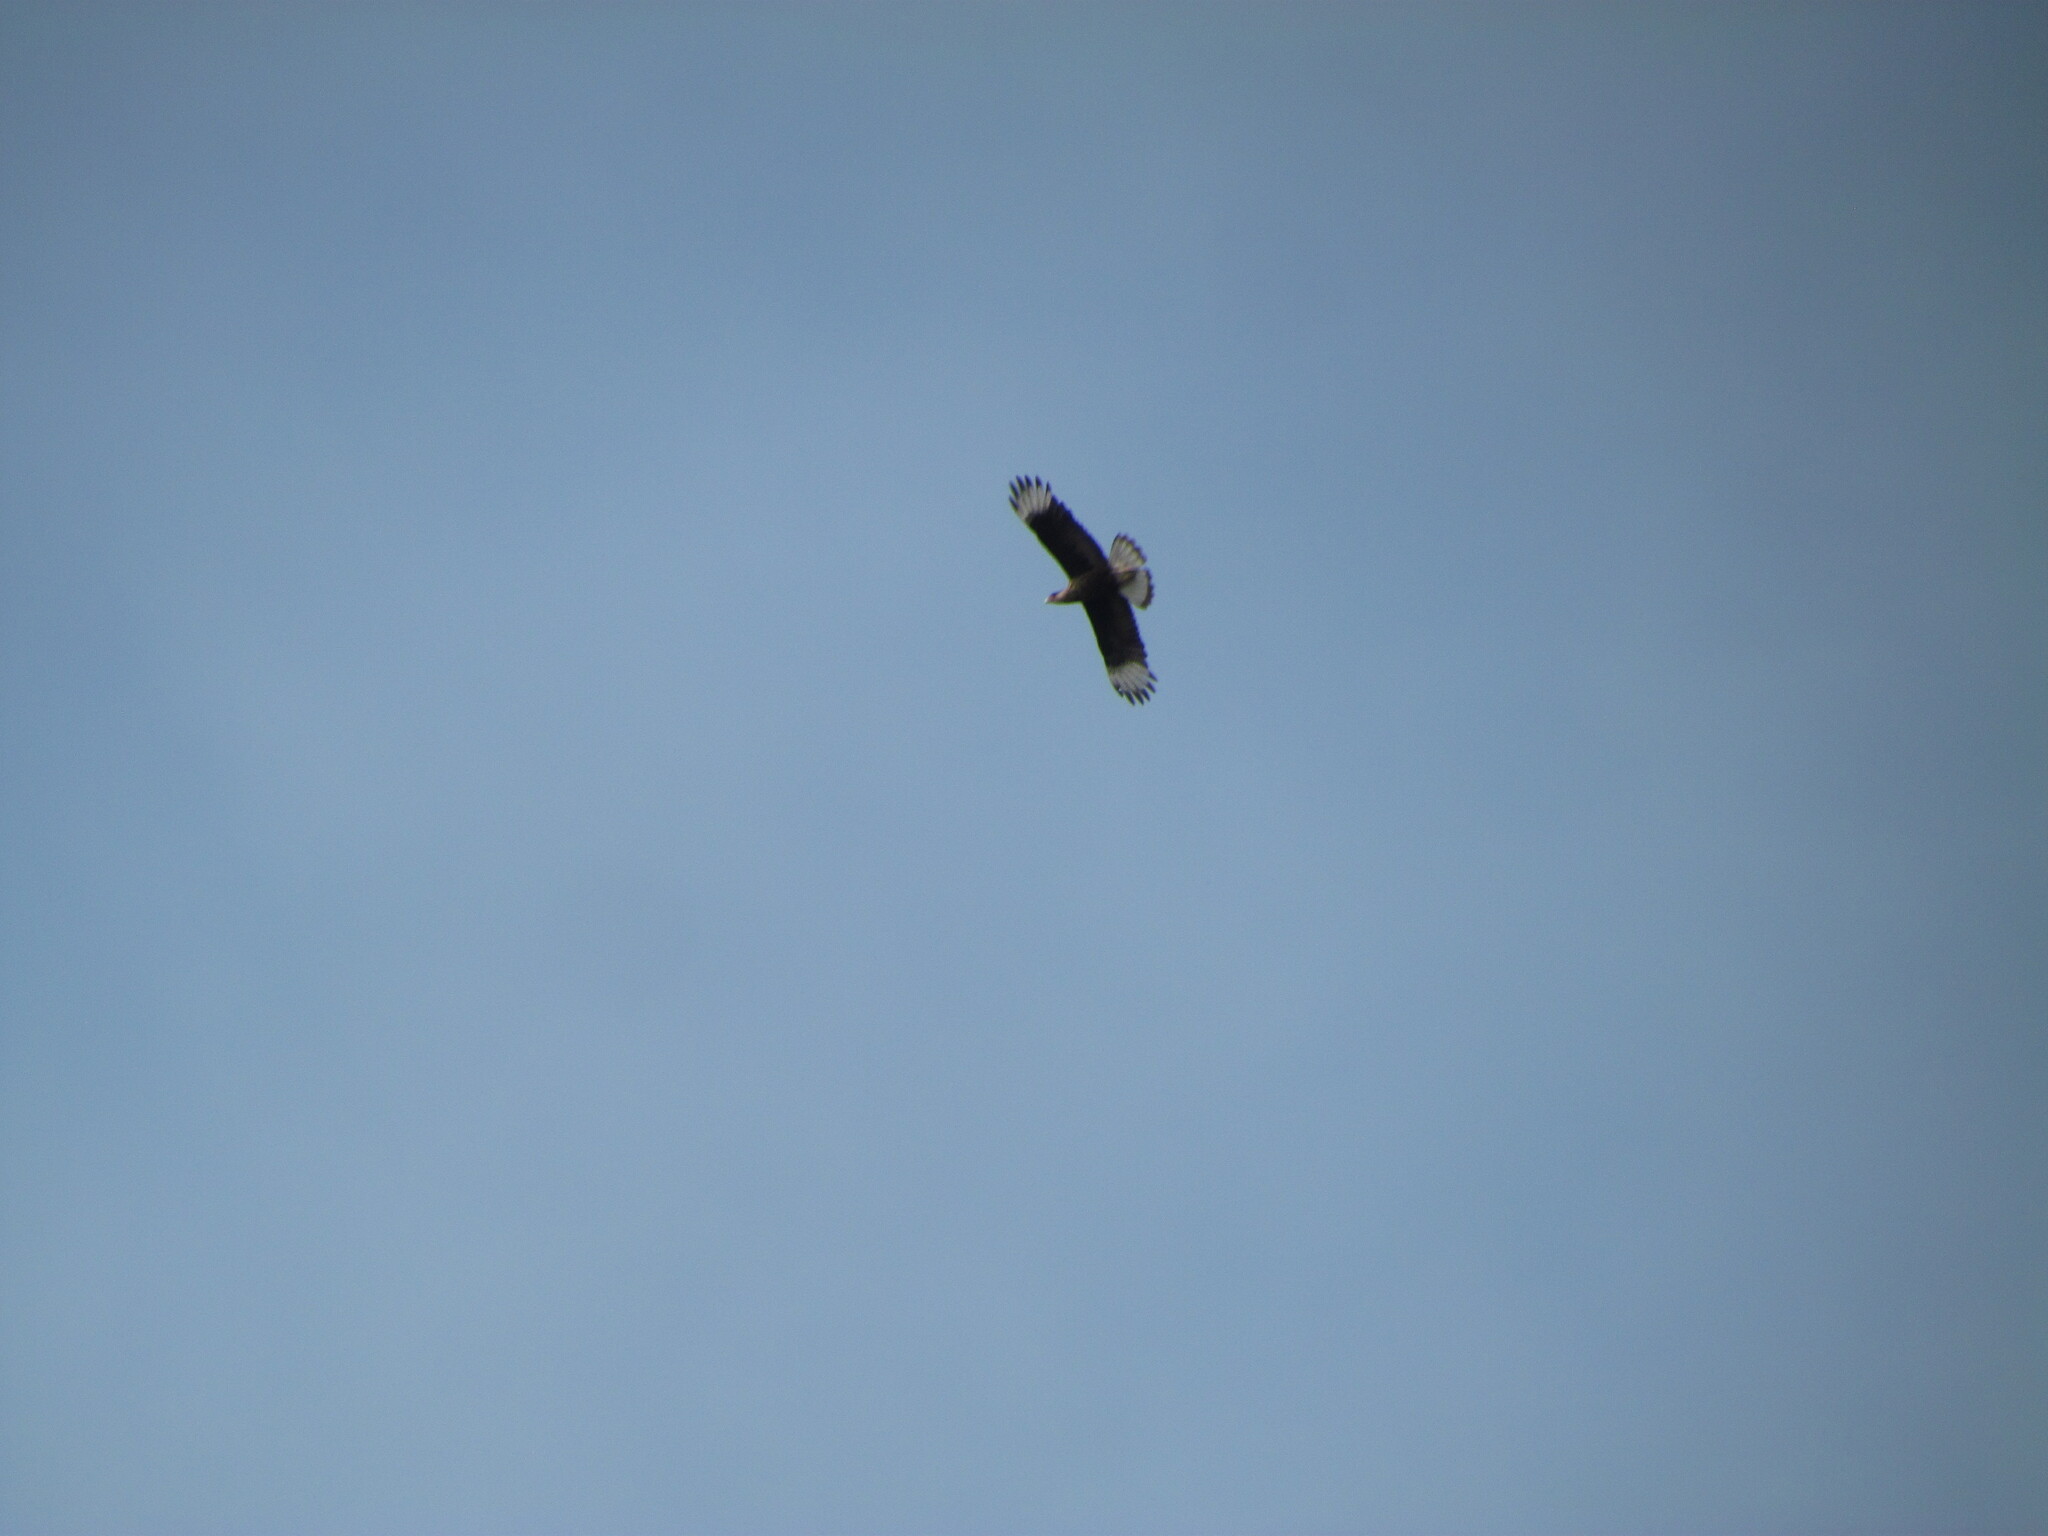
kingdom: Animalia
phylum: Chordata
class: Aves
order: Falconiformes
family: Falconidae
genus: Caracara
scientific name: Caracara plancus
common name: Southern caracara
